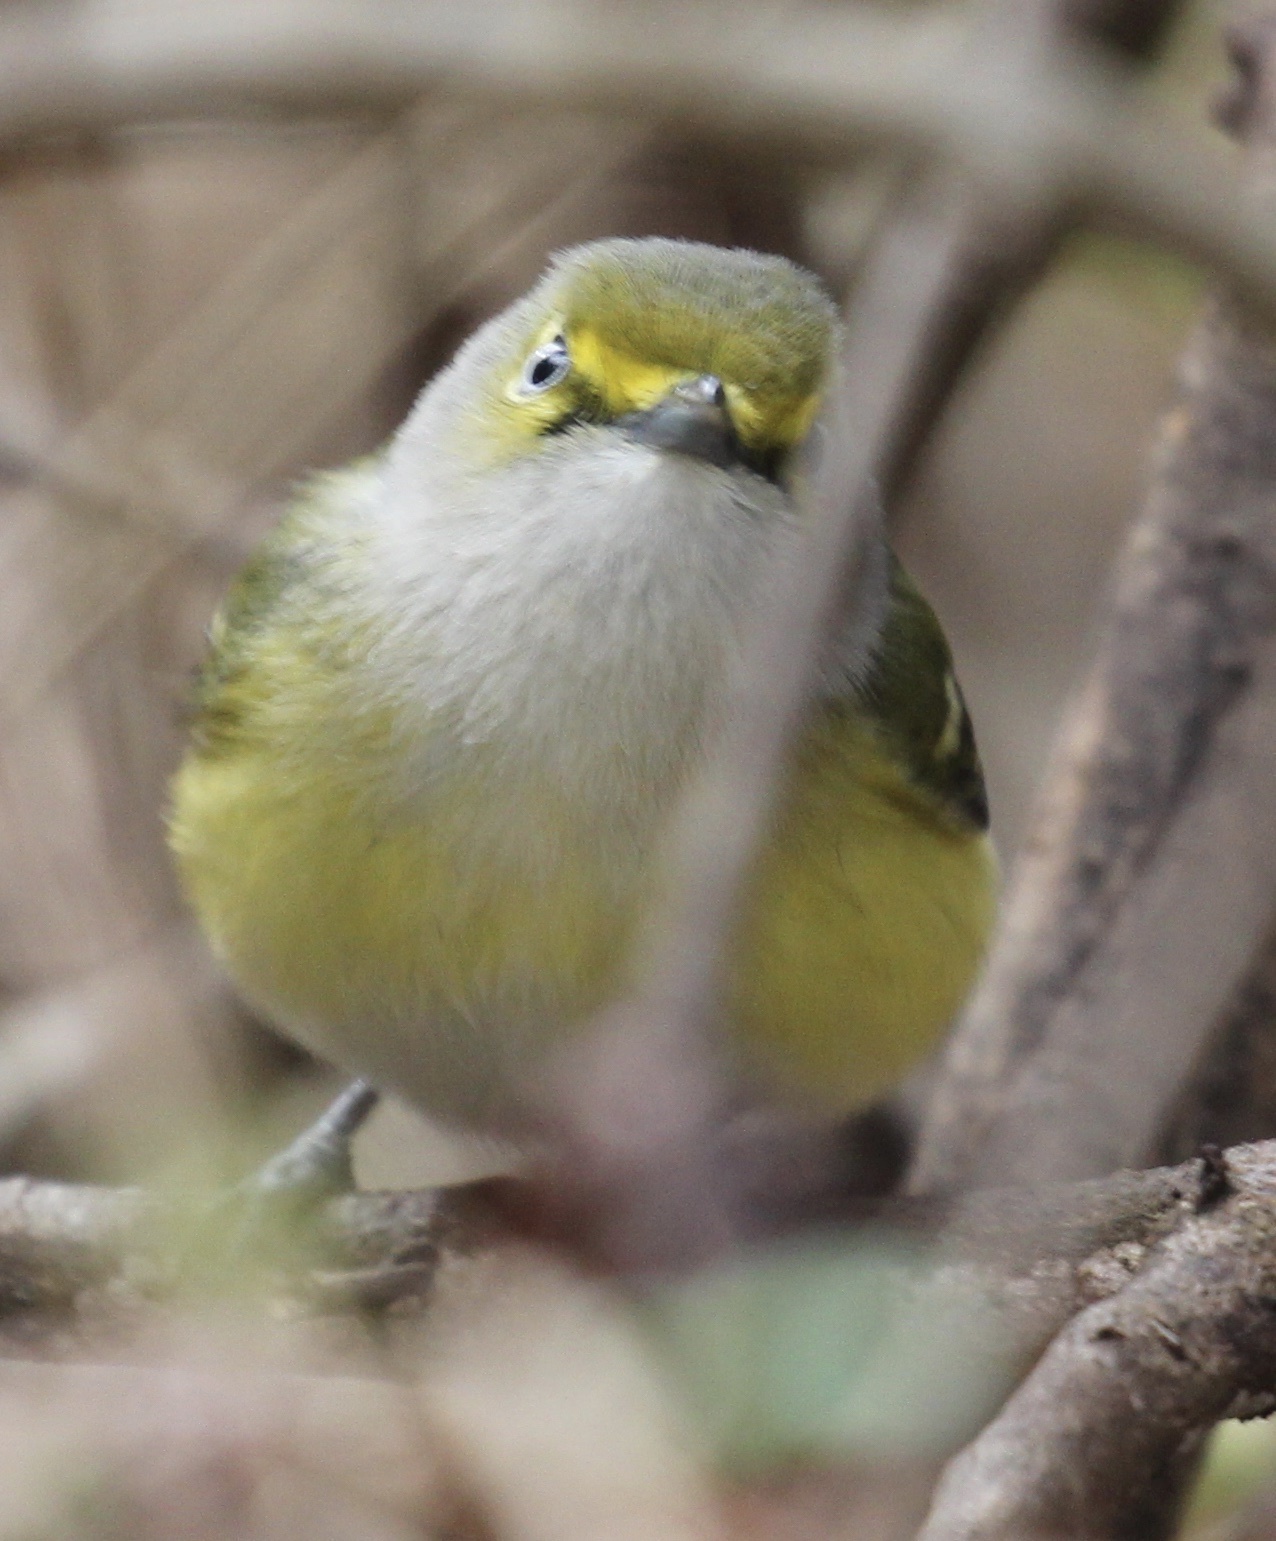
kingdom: Animalia
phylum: Chordata
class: Aves
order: Passeriformes
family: Vireonidae
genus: Vireo
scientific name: Vireo griseus
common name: White-eyed vireo
